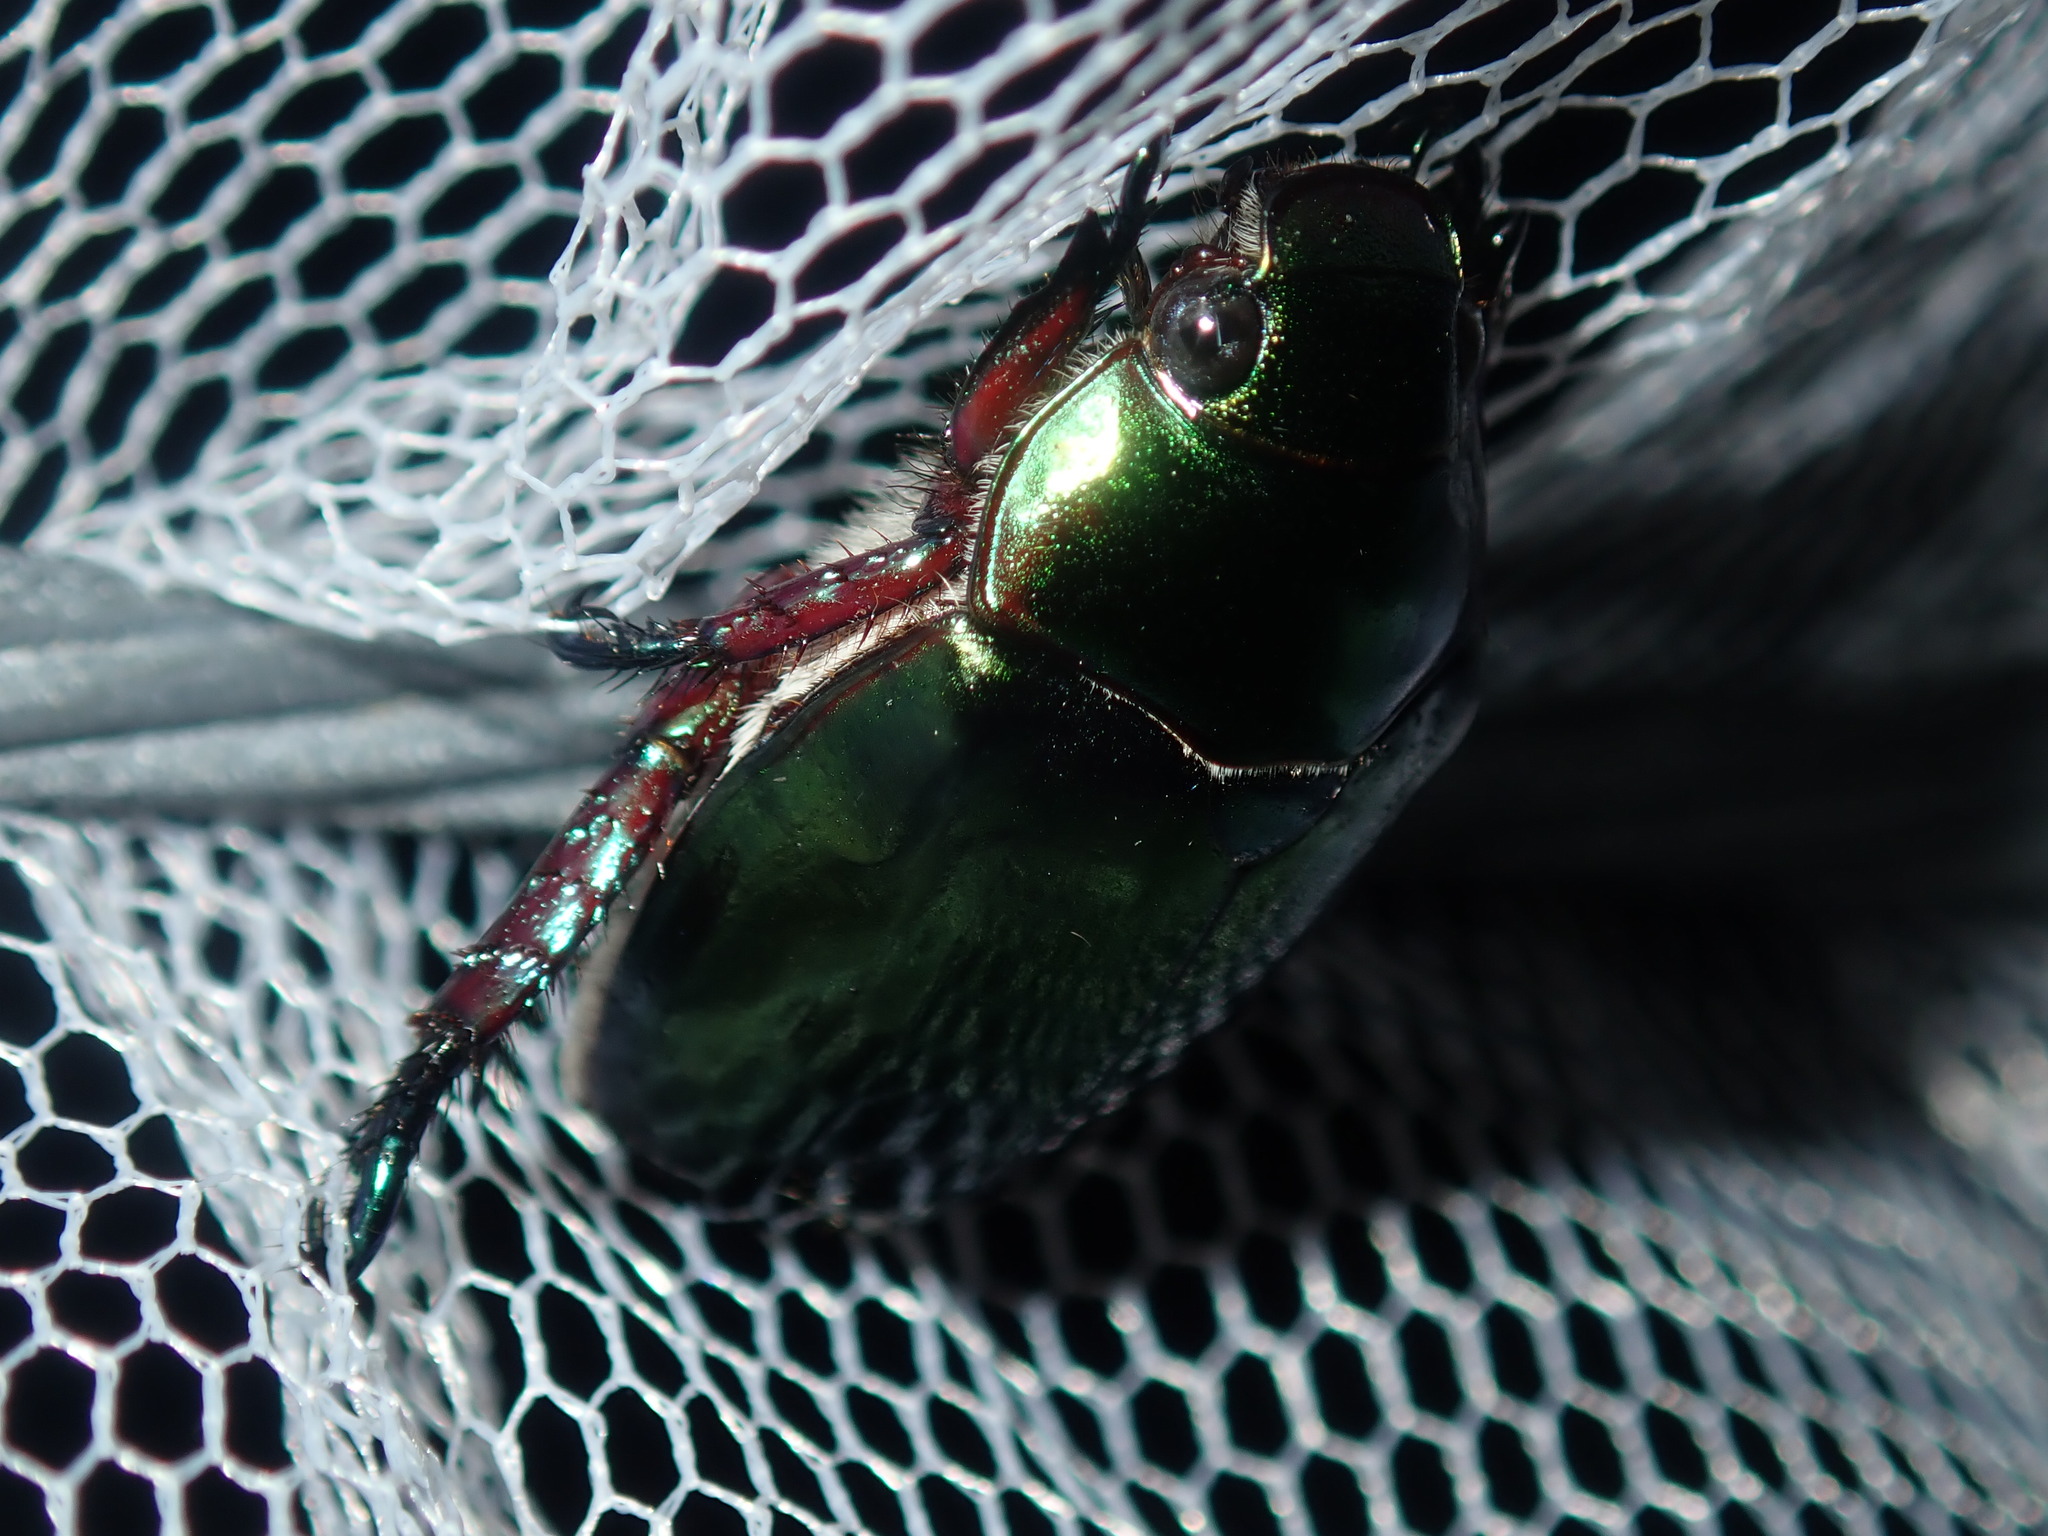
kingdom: Animalia
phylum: Arthropoda
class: Insecta
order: Coleoptera
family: Scarabaeidae
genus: Repsimus
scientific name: Repsimus aeneus
